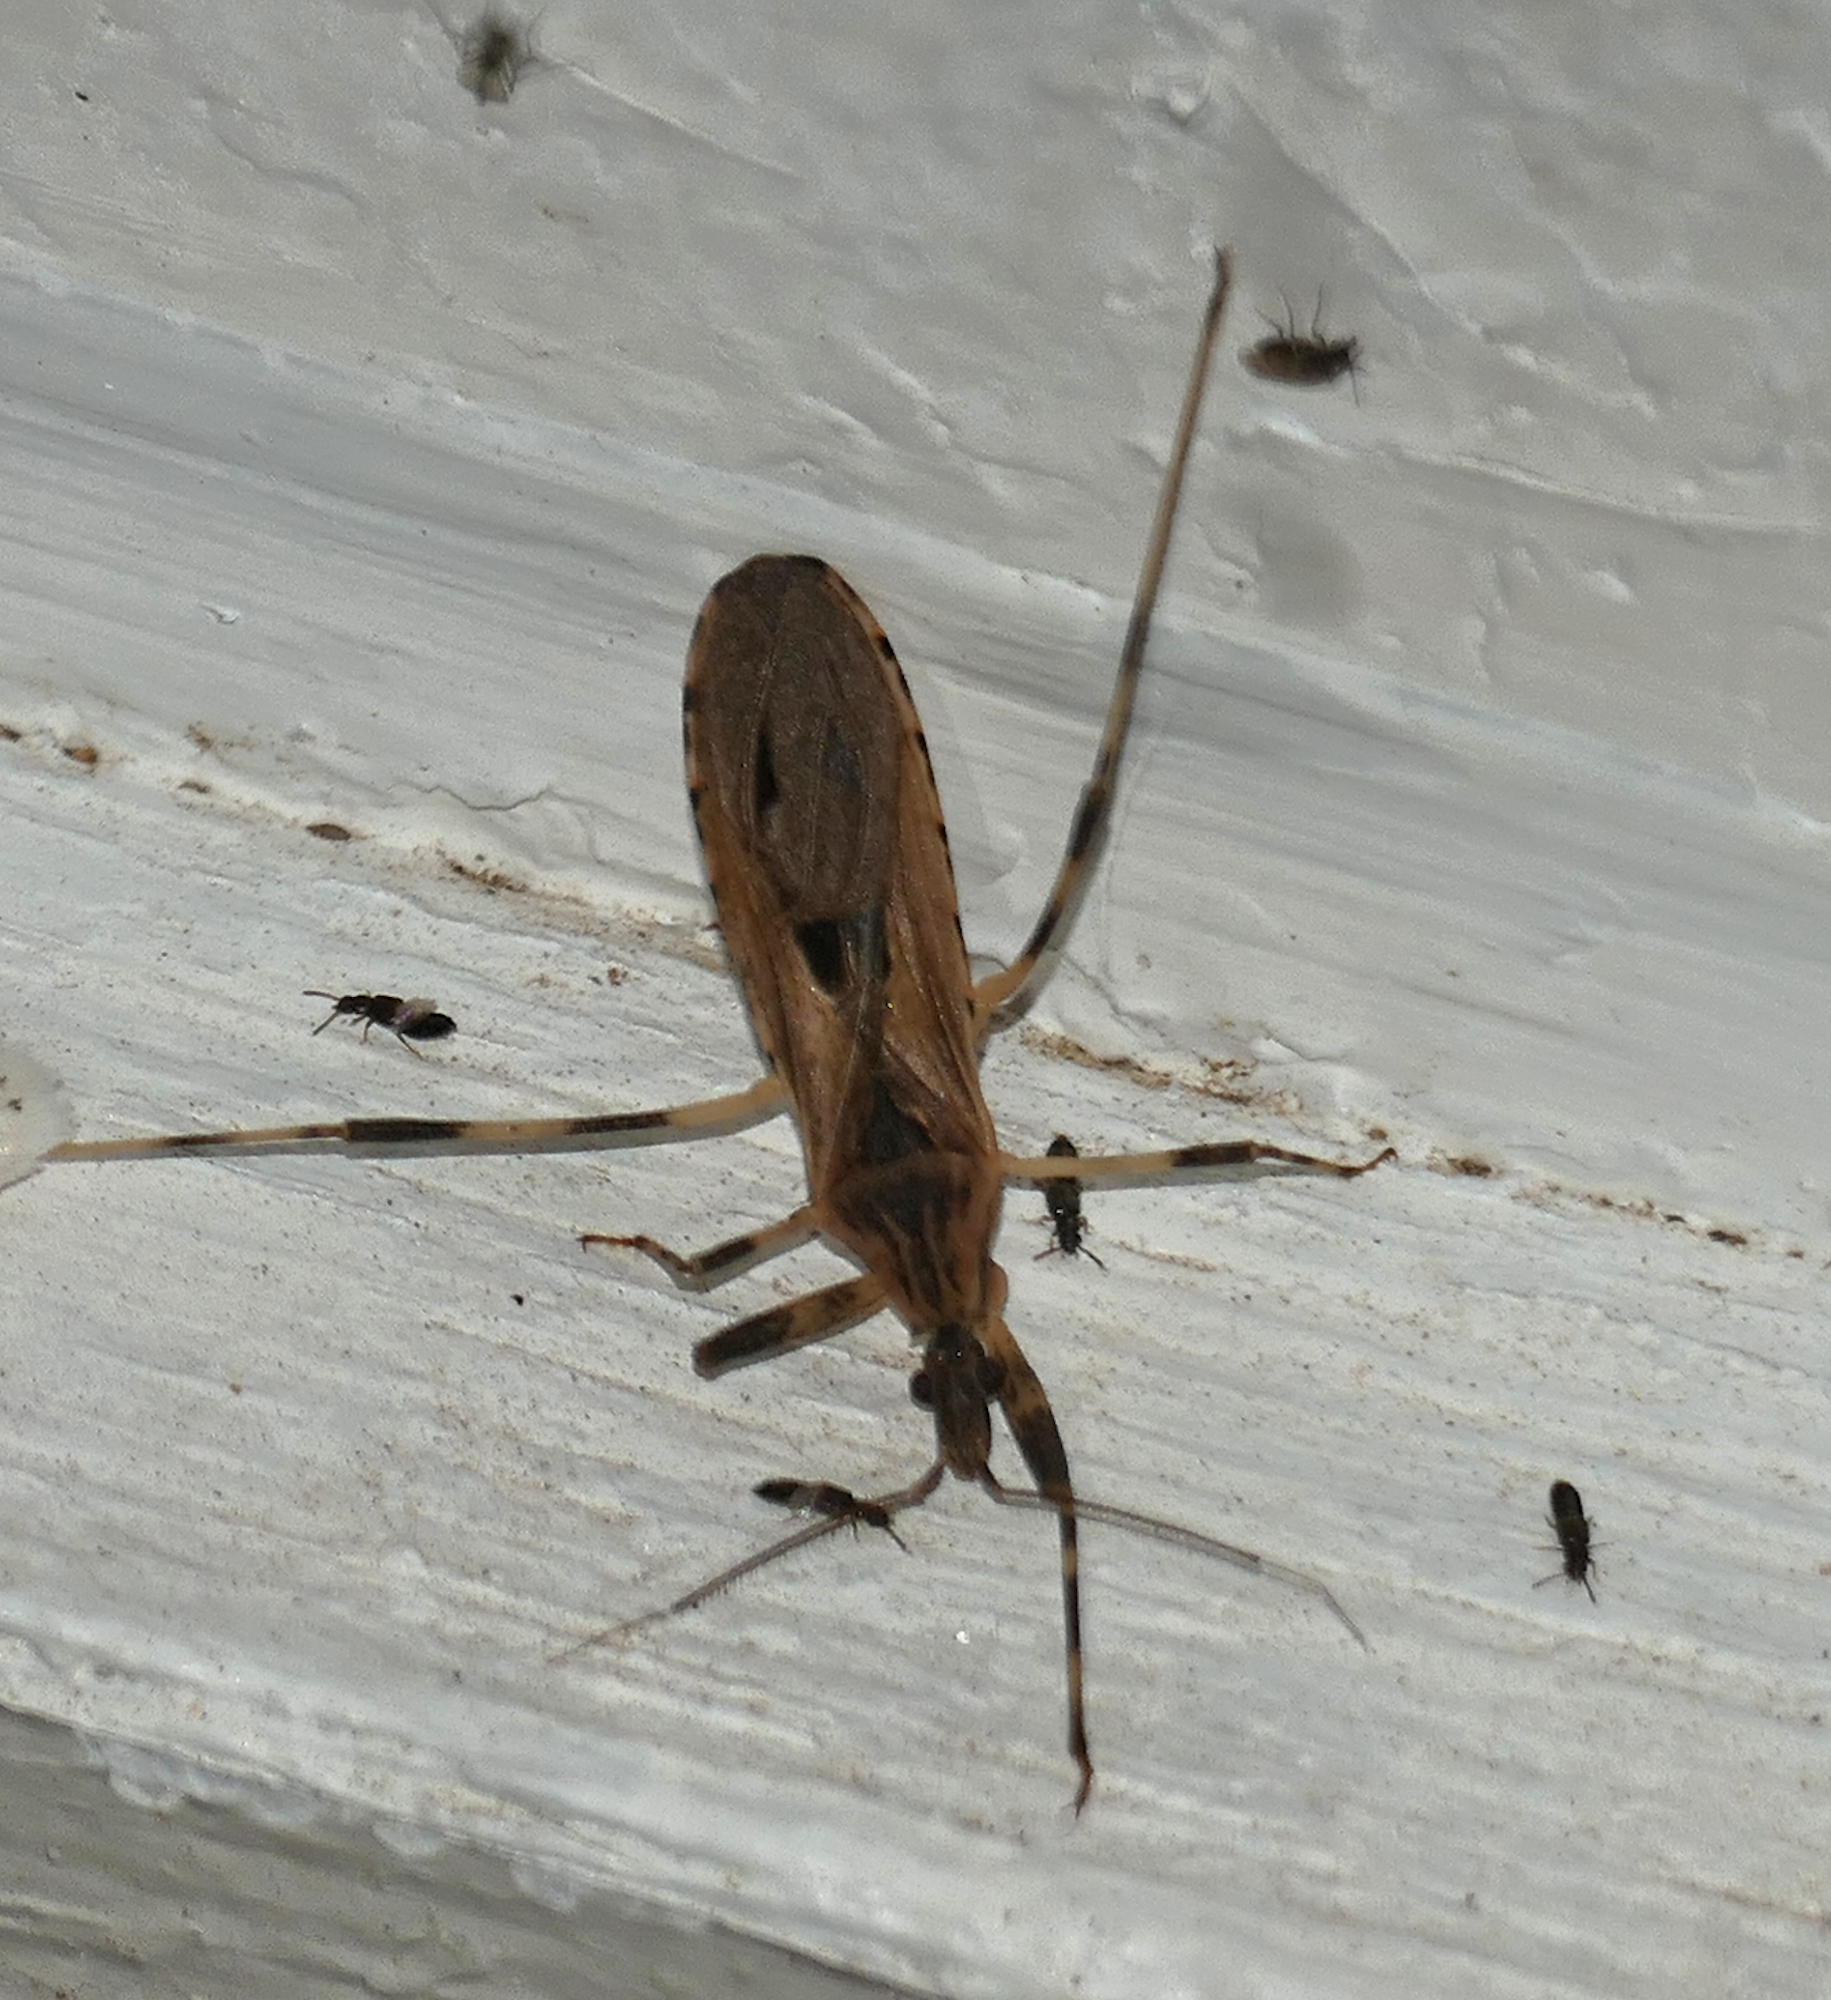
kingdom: Animalia
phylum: Arthropoda
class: Insecta
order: Hemiptera
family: Reduviidae
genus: Oncocephalus
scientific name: Oncocephalus geniculatus
